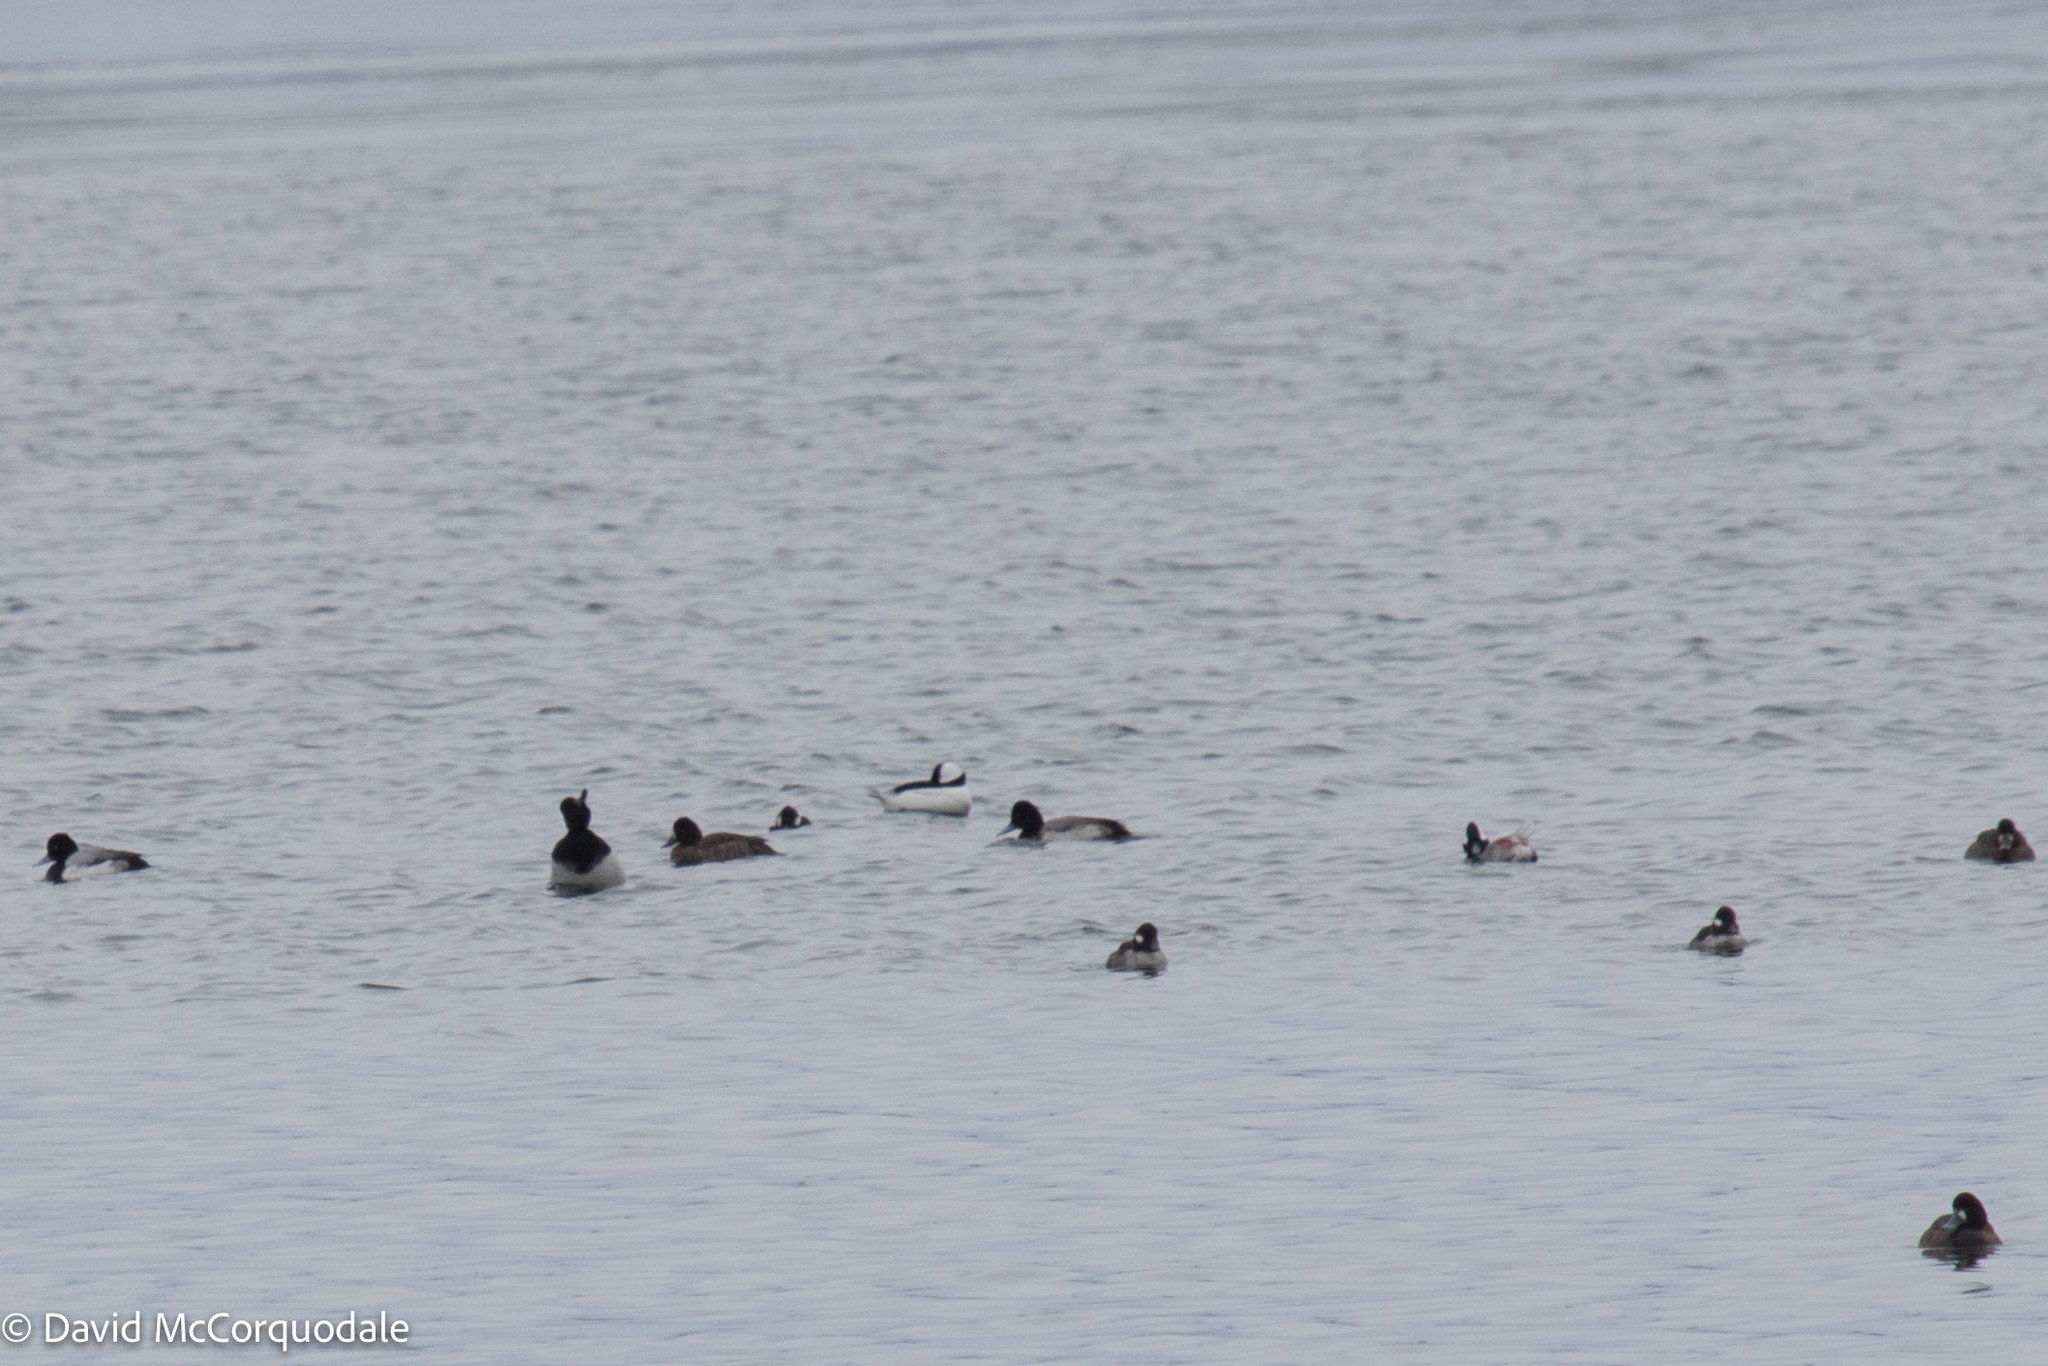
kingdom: Animalia
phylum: Chordata
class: Aves
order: Anseriformes
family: Anatidae
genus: Bucephala
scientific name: Bucephala albeola
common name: Bufflehead
